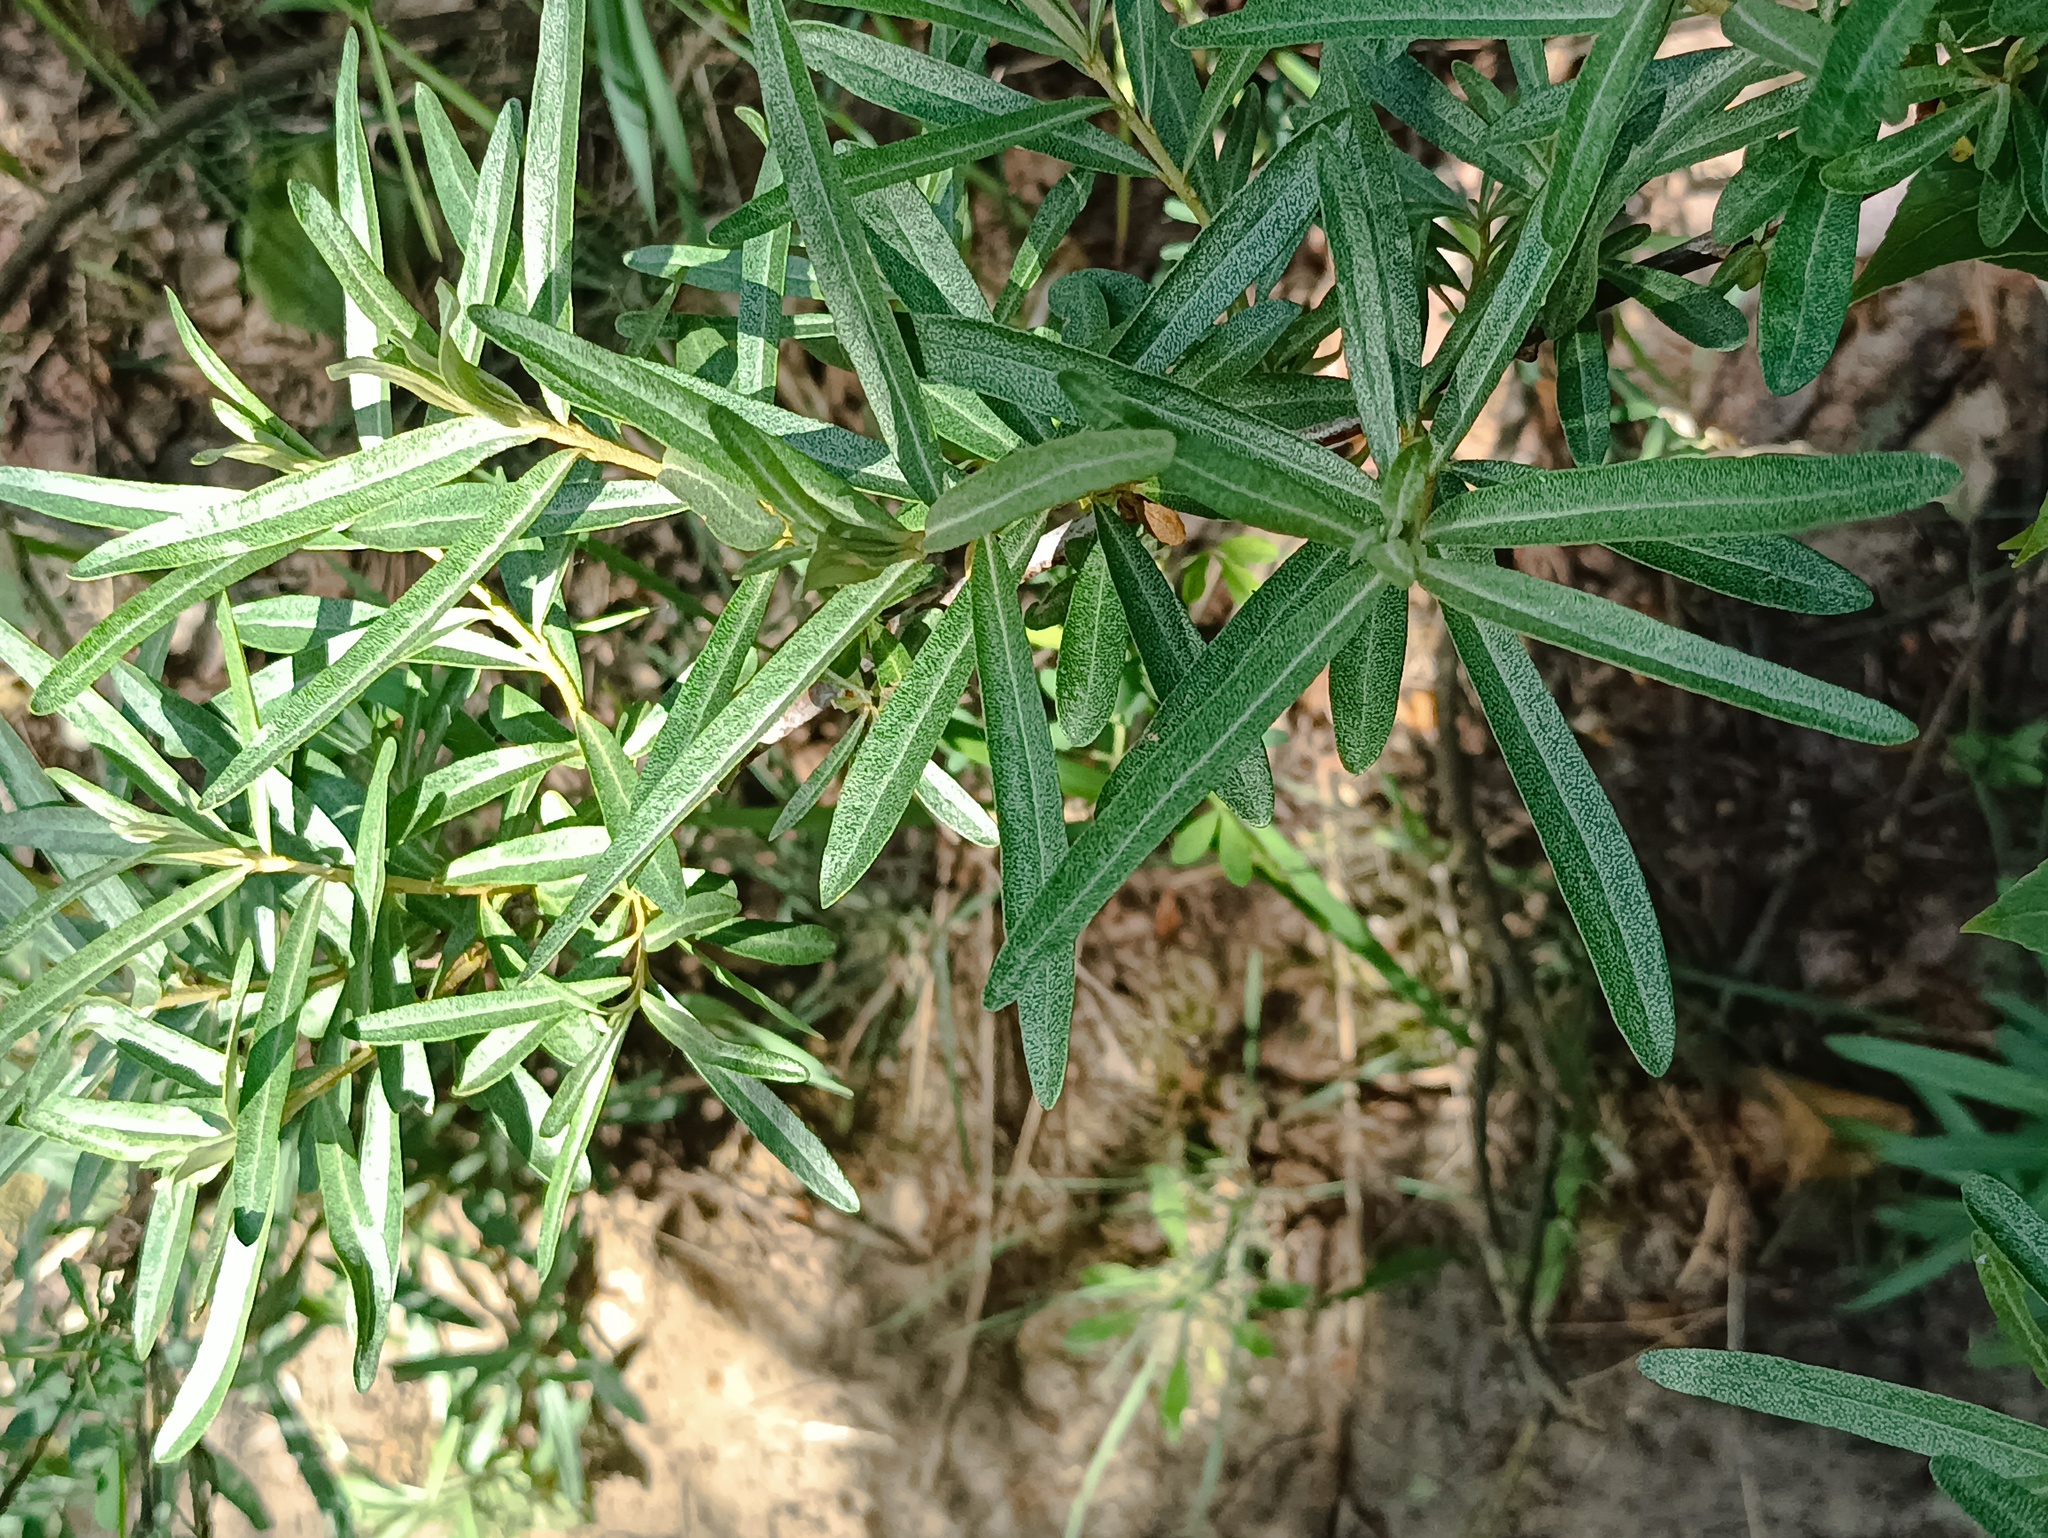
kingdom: Plantae
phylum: Tracheophyta
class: Magnoliopsida
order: Rosales
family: Elaeagnaceae
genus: Hippophae
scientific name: Hippophae rhamnoides
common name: Sea-buckthorn
